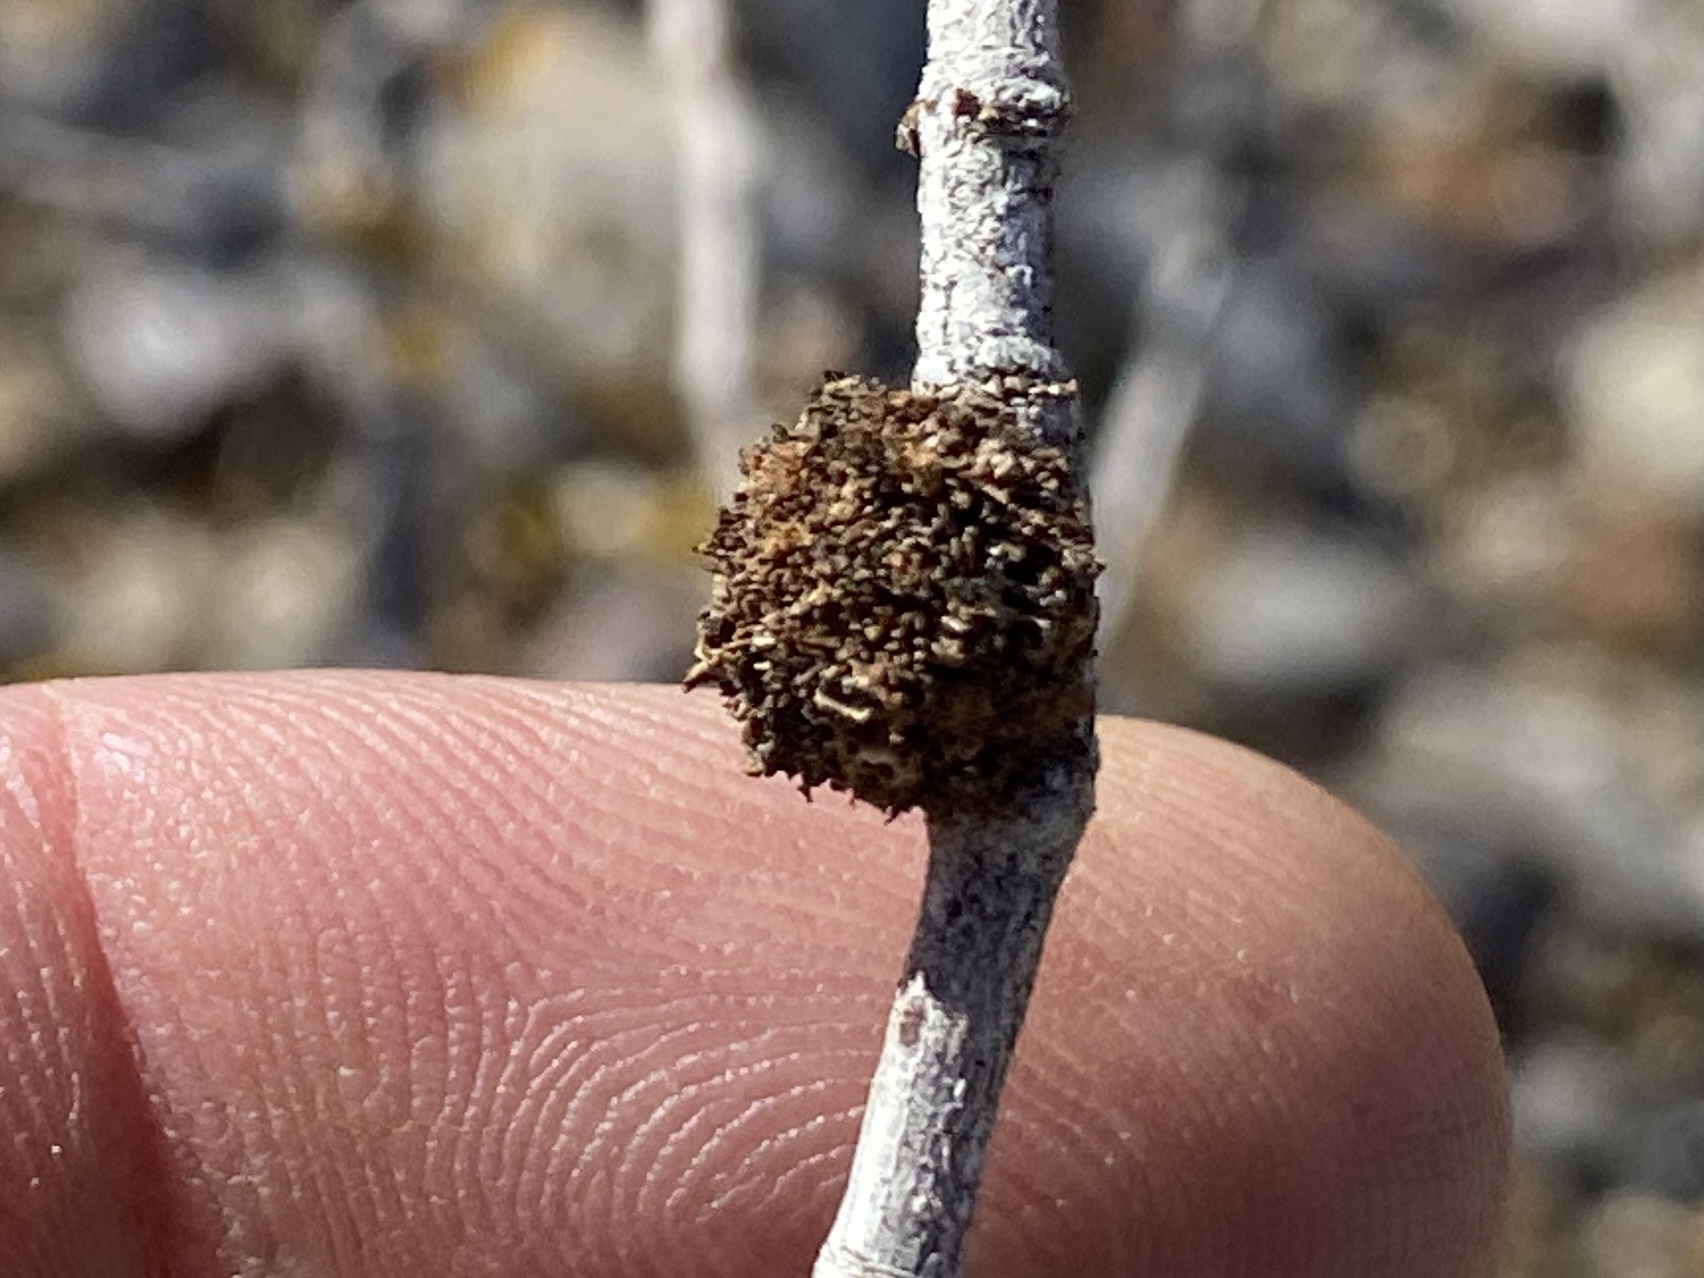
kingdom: Animalia
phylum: Arthropoda
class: Insecta
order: Diptera
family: Cecidomyiidae
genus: Asphondylia
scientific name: Asphondylia auripila
